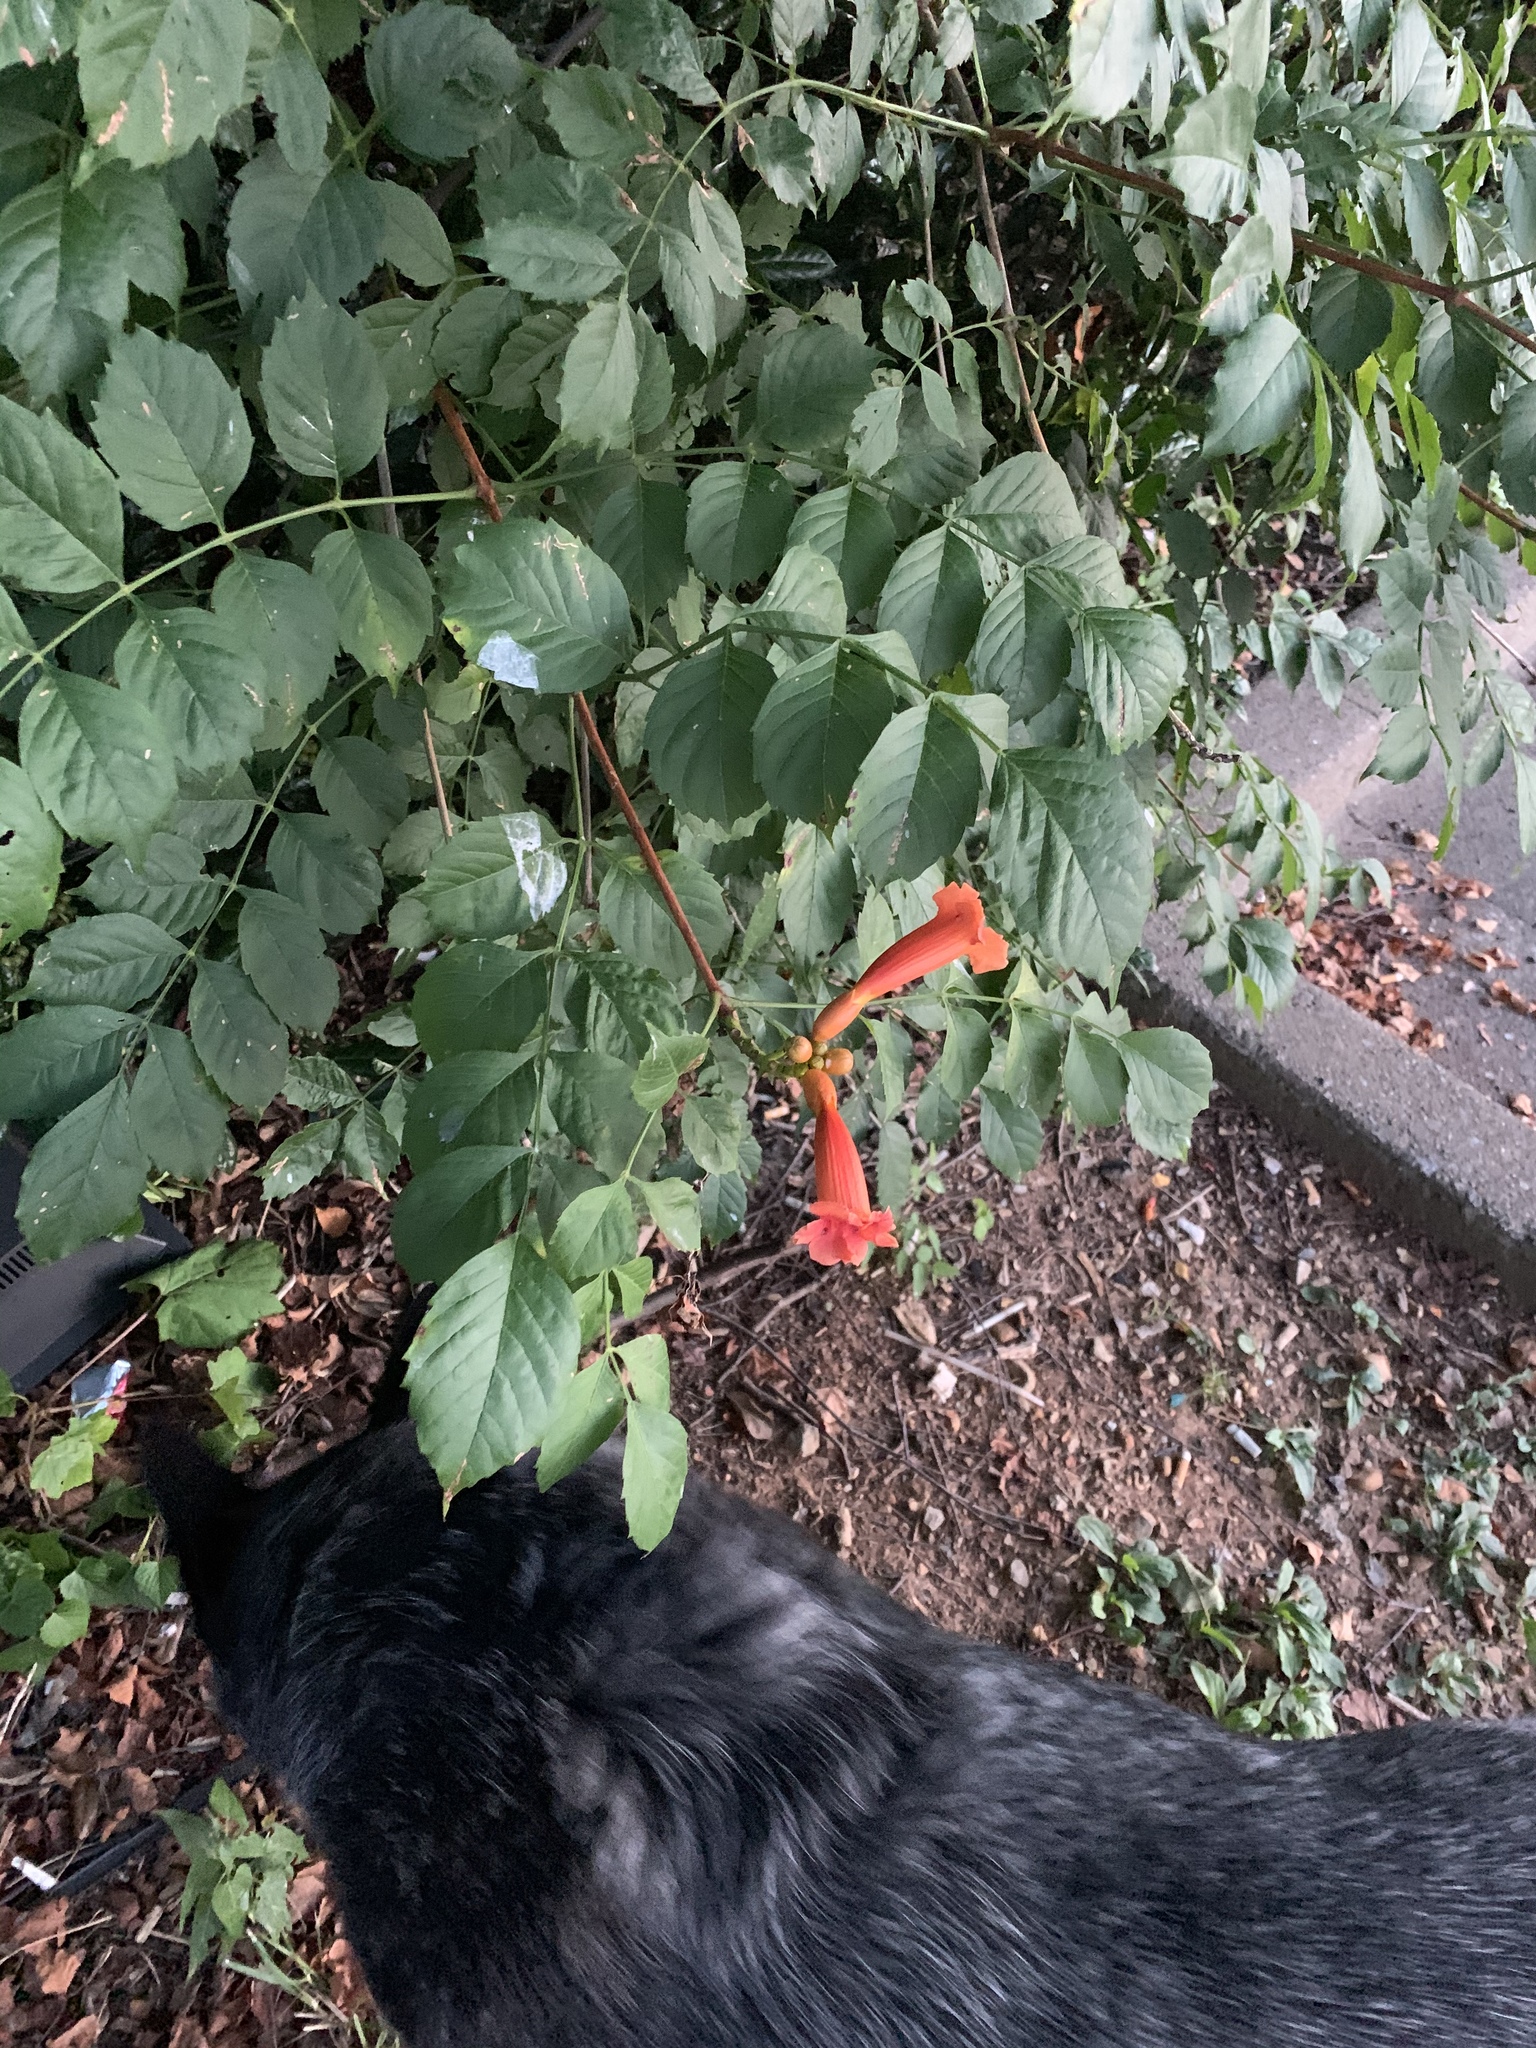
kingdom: Plantae
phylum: Tracheophyta
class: Magnoliopsida
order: Lamiales
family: Bignoniaceae
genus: Campsis
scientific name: Campsis radicans
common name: Trumpet-creeper
